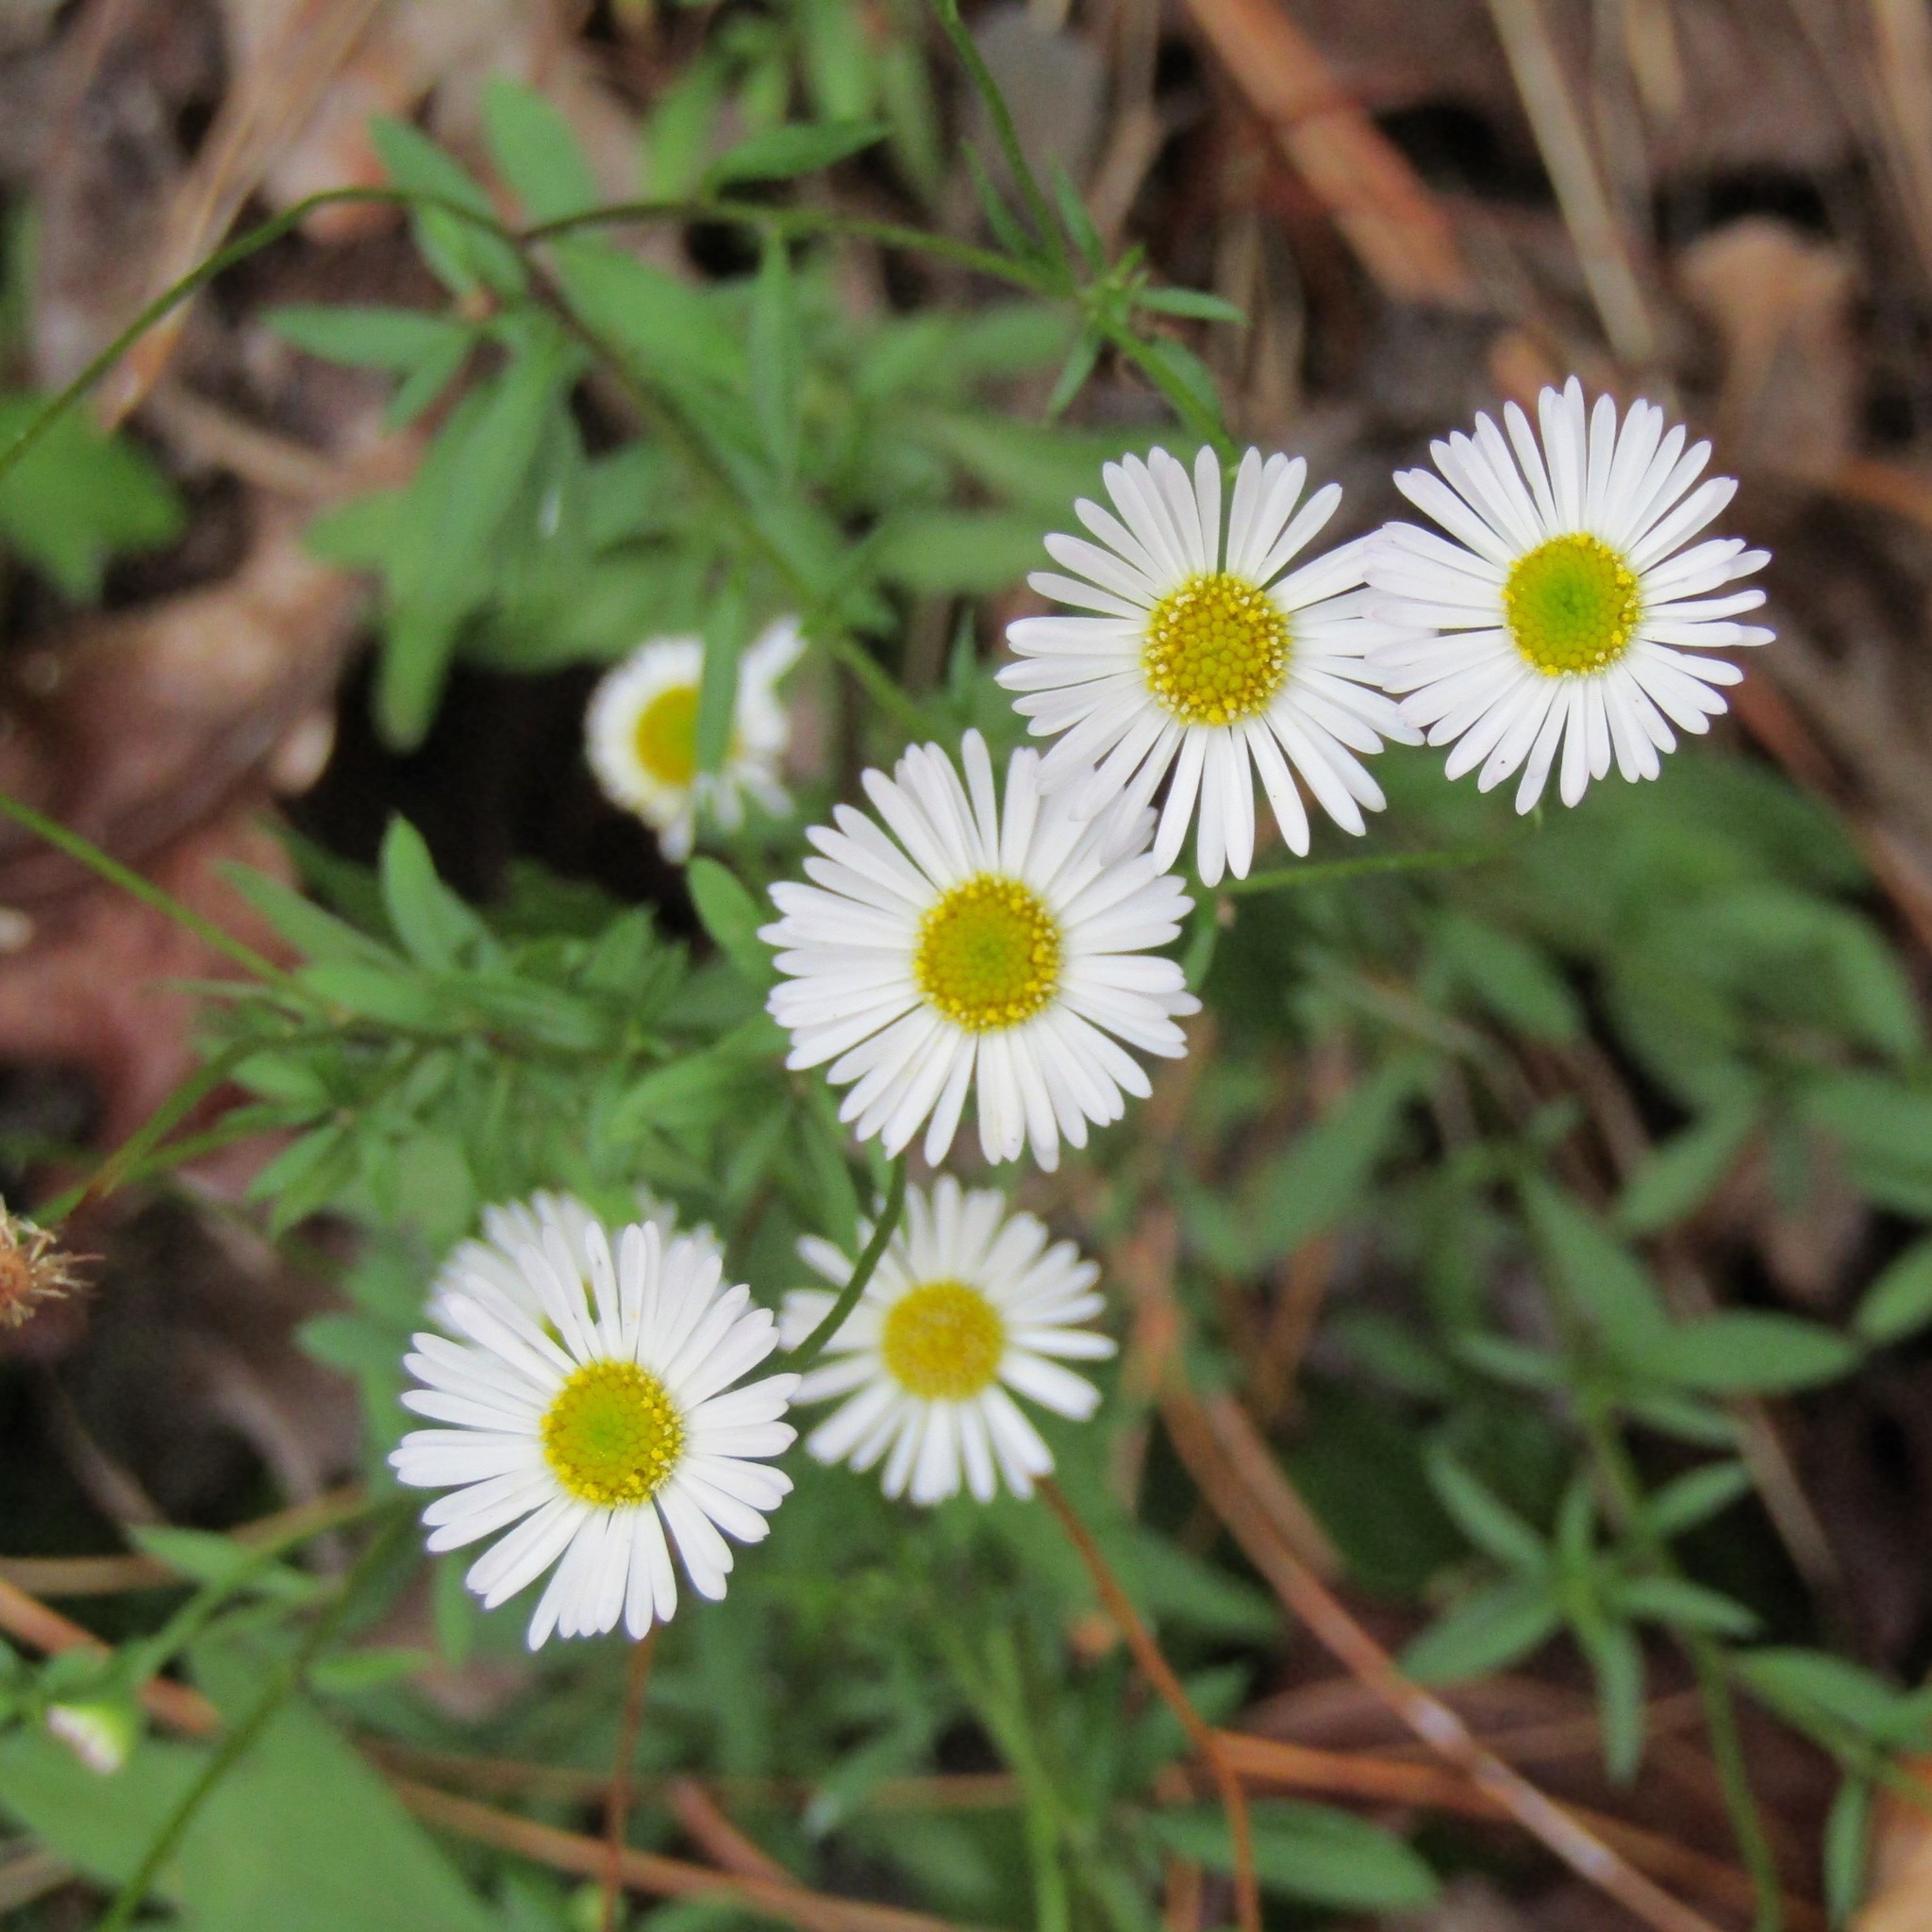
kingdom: Plantae
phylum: Tracheophyta
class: Magnoliopsida
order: Asterales
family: Asteraceae
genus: Erigeron
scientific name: Erigeron karvinskianus
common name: Mexican fleabane
